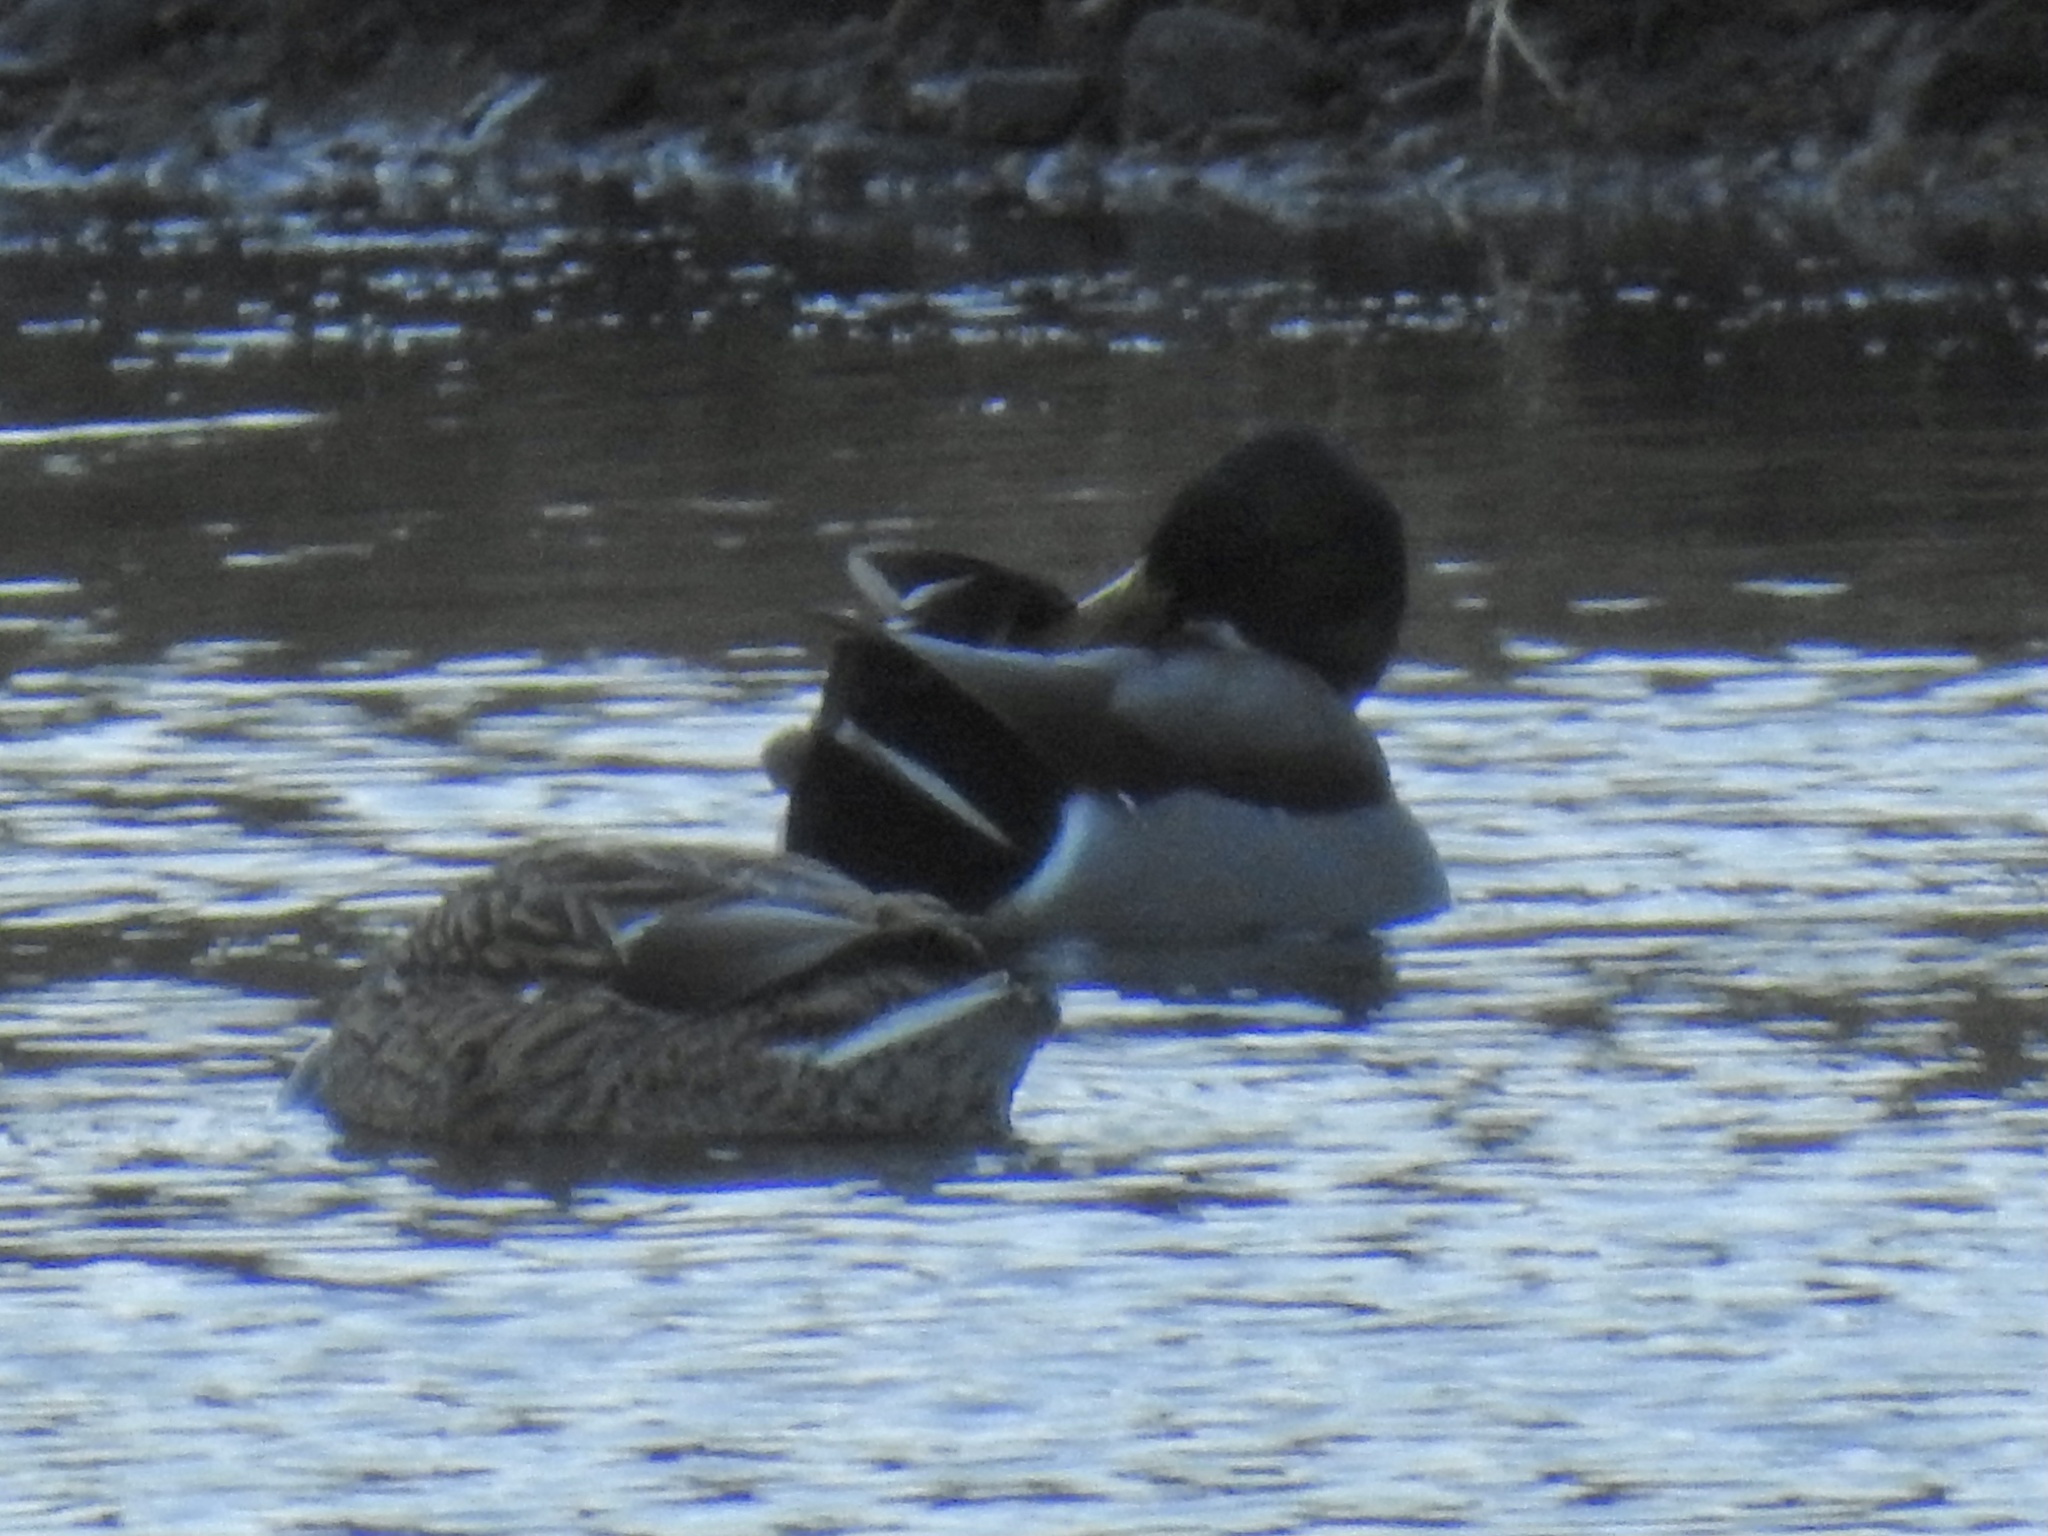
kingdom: Animalia
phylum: Chordata
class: Aves
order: Anseriformes
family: Anatidae
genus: Anas
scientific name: Anas platyrhynchos
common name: Mallard
